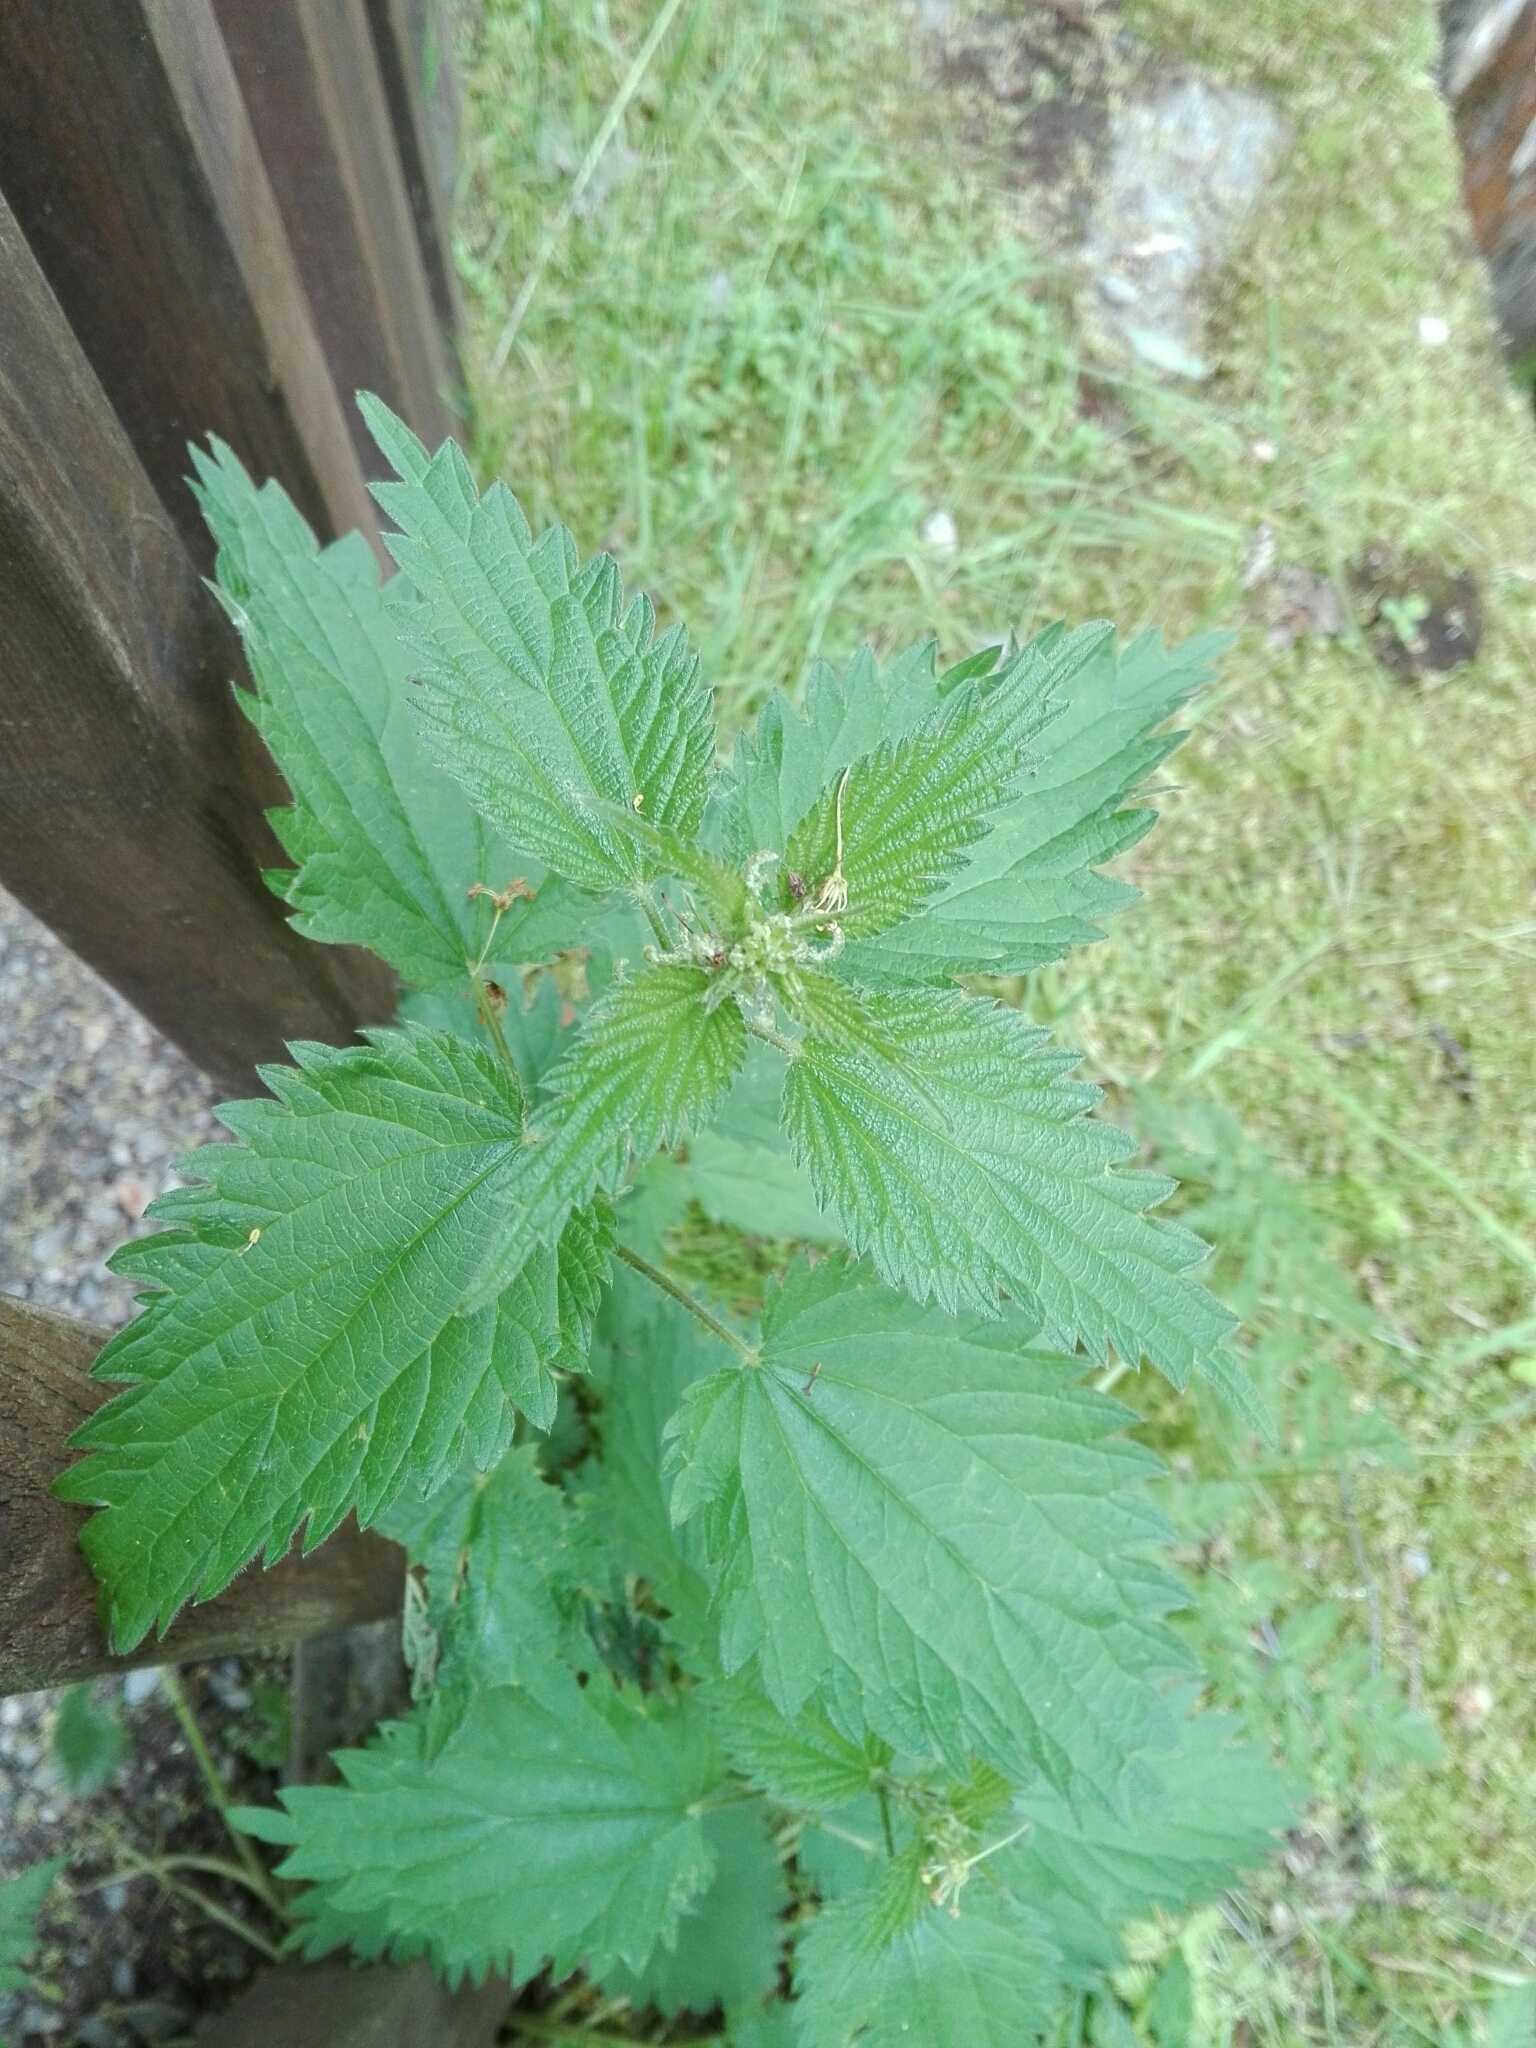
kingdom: Plantae
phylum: Tracheophyta
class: Magnoliopsida
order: Rosales
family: Urticaceae
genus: Urtica
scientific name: Urtica dioica
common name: Common nettle
